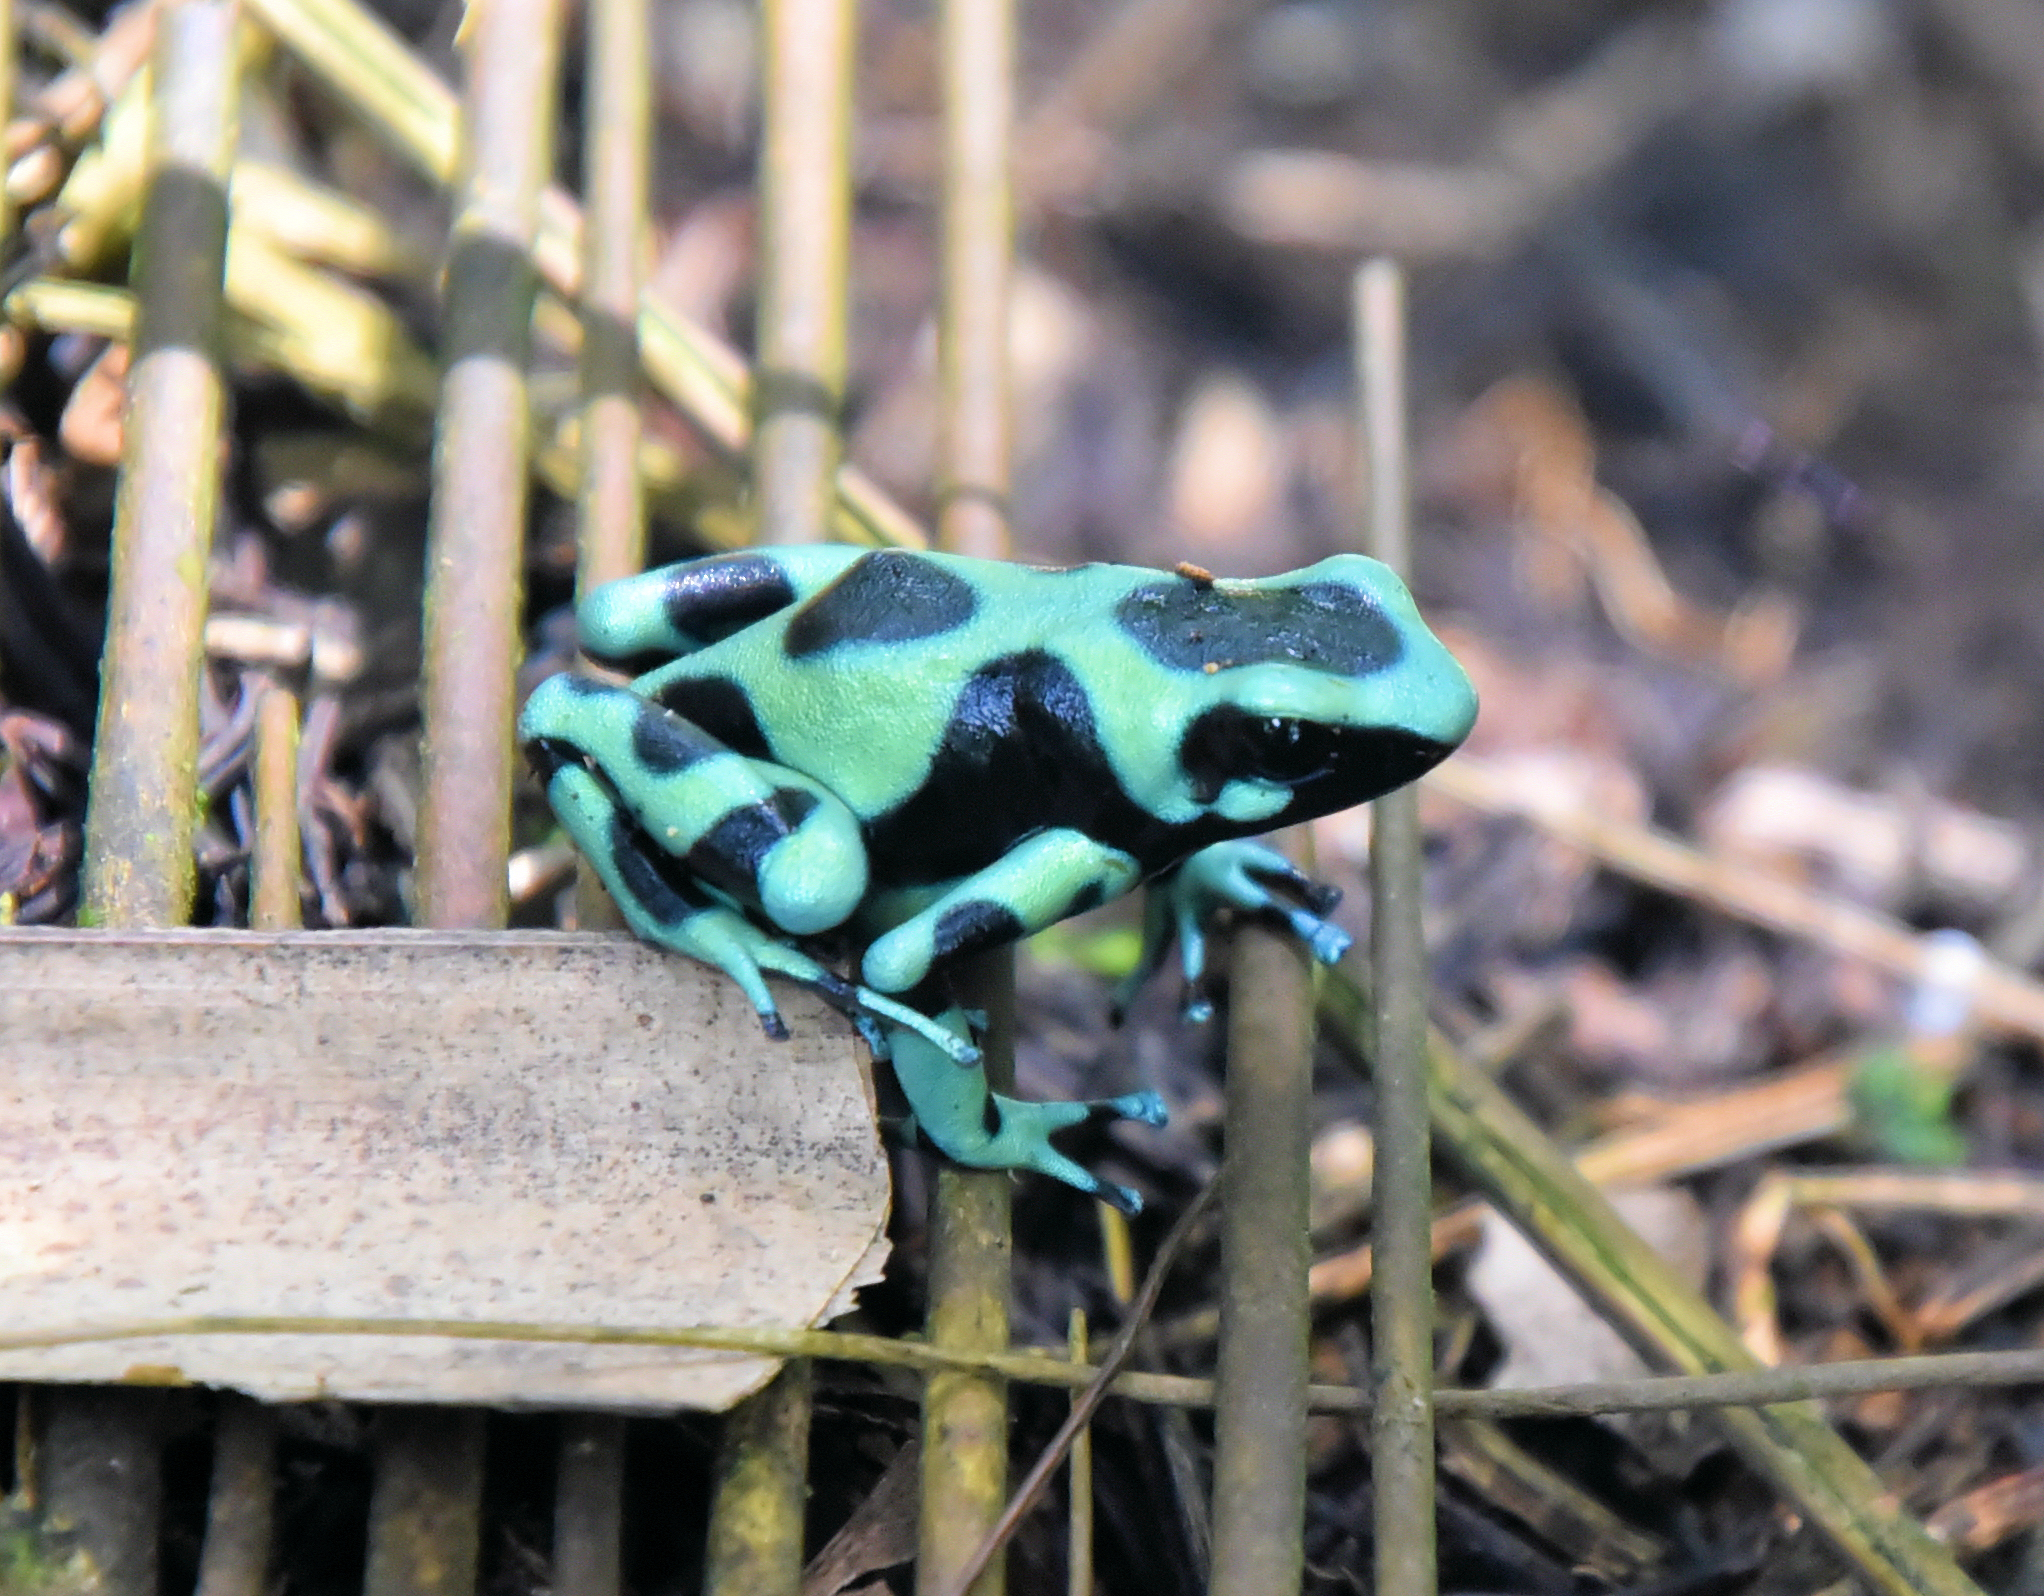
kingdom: Animalia
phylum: Chordata
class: Amphibia
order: Anura
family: Dendrobatidae
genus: Dendrobates
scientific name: Dendrobates auratus
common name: Green and black poison dart frog
